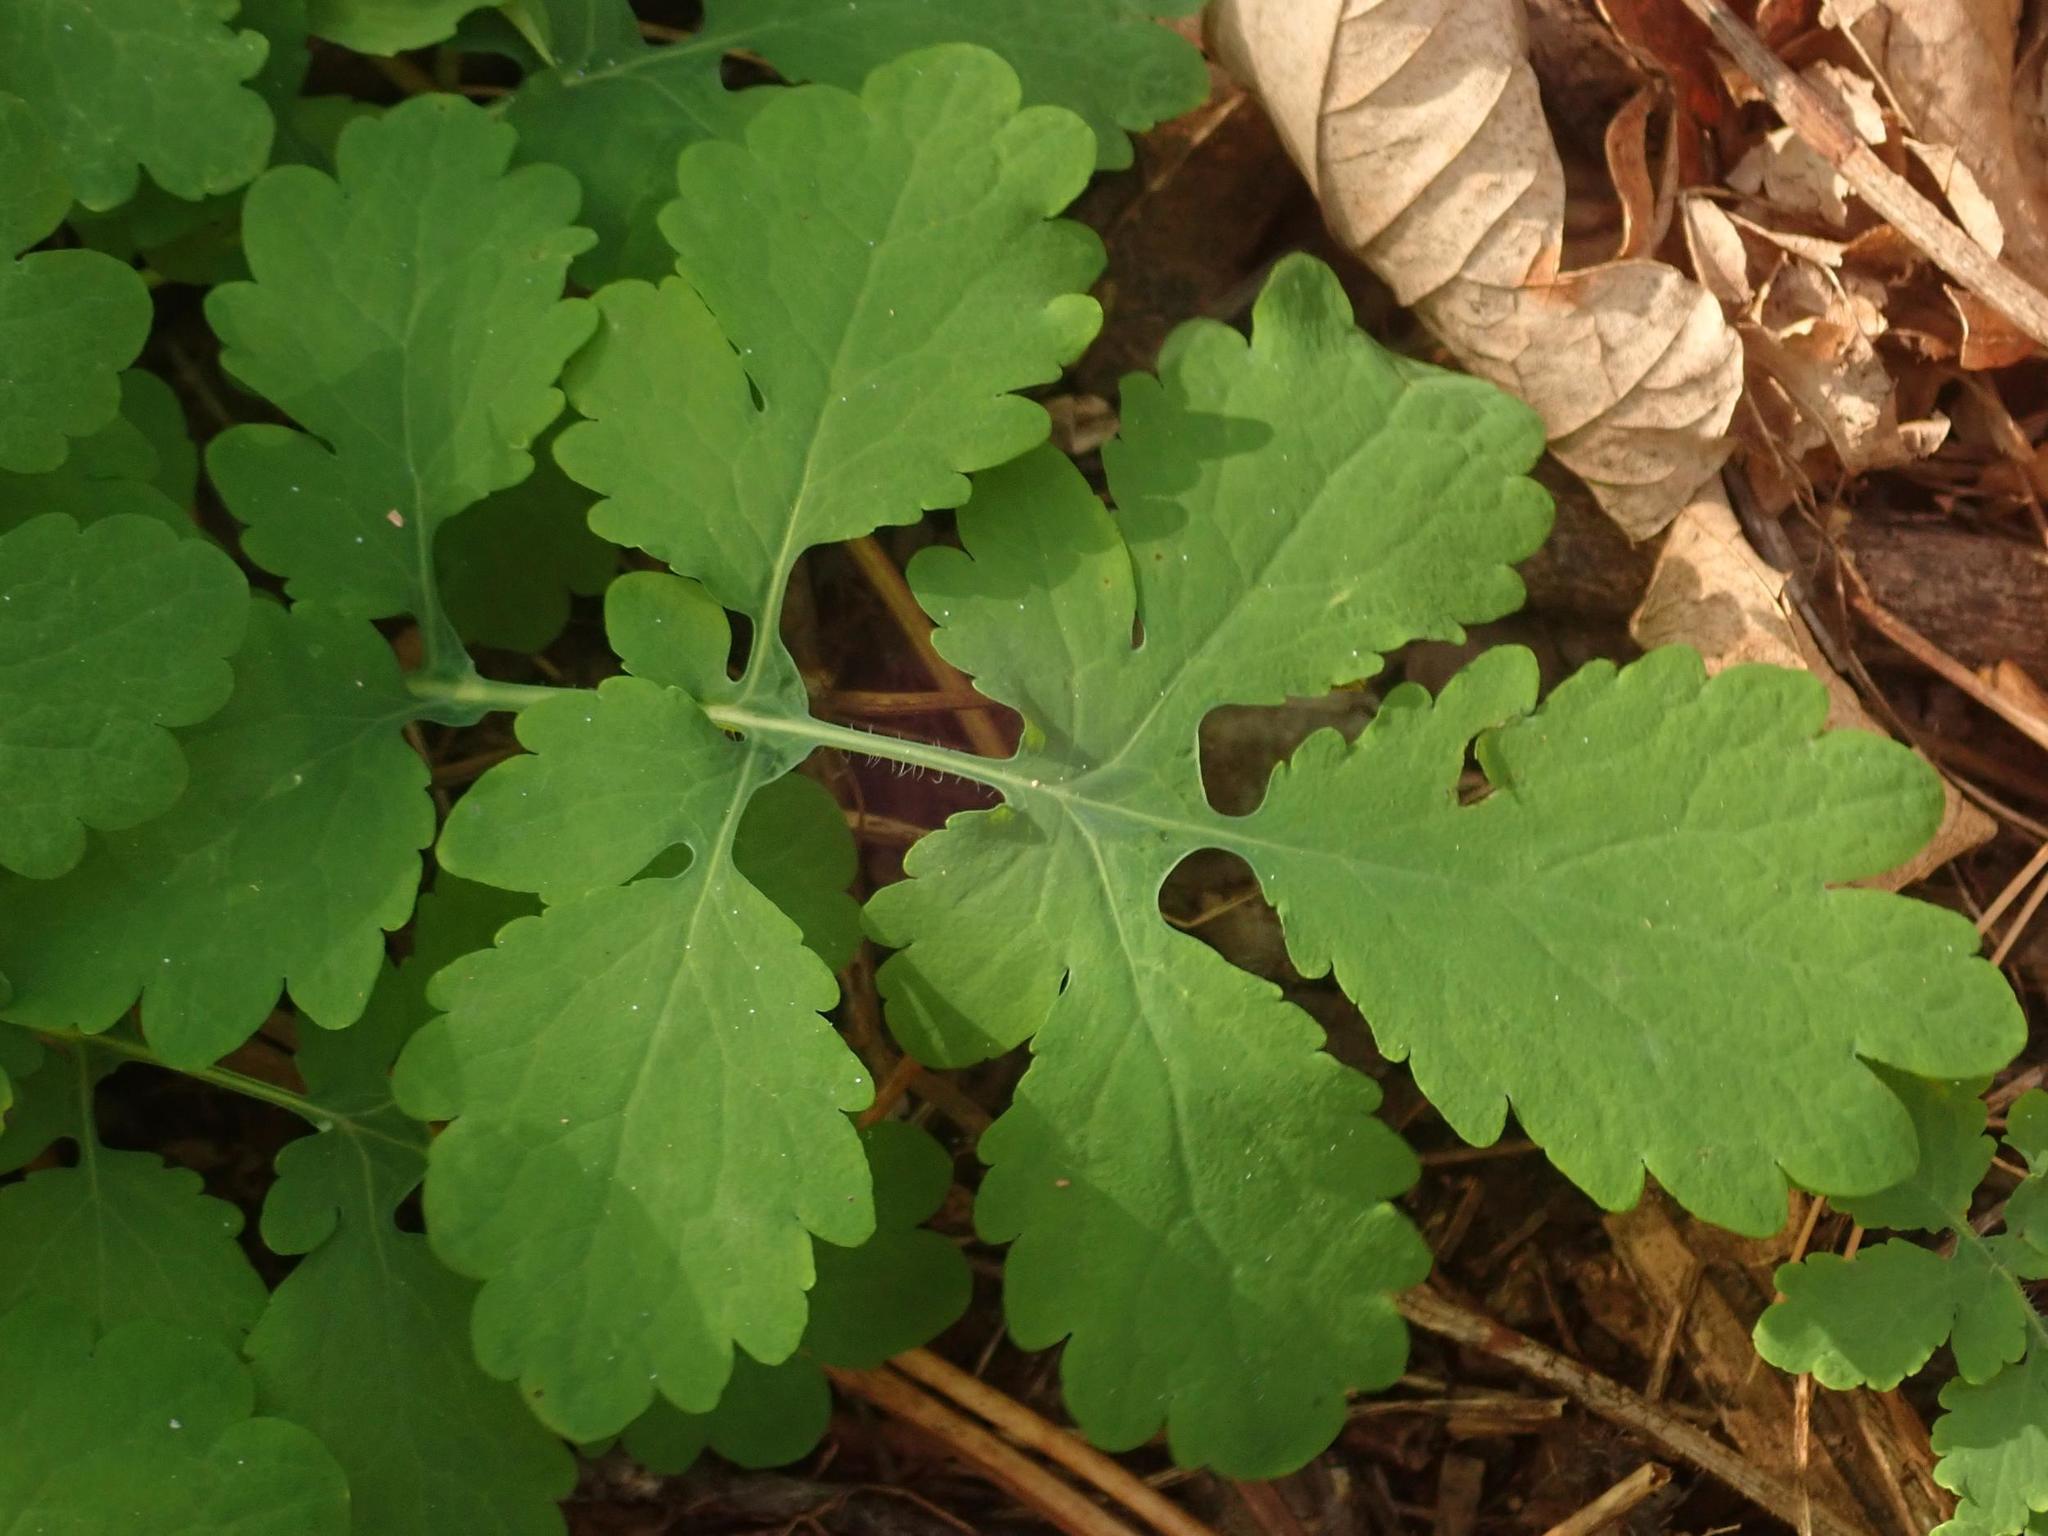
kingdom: Plantae
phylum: Tracheophyta
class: Magnoliopsida
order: Ranunculales
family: Papaveraceae
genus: Chelidonium
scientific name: Chelidonium majus
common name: Greater celandine
